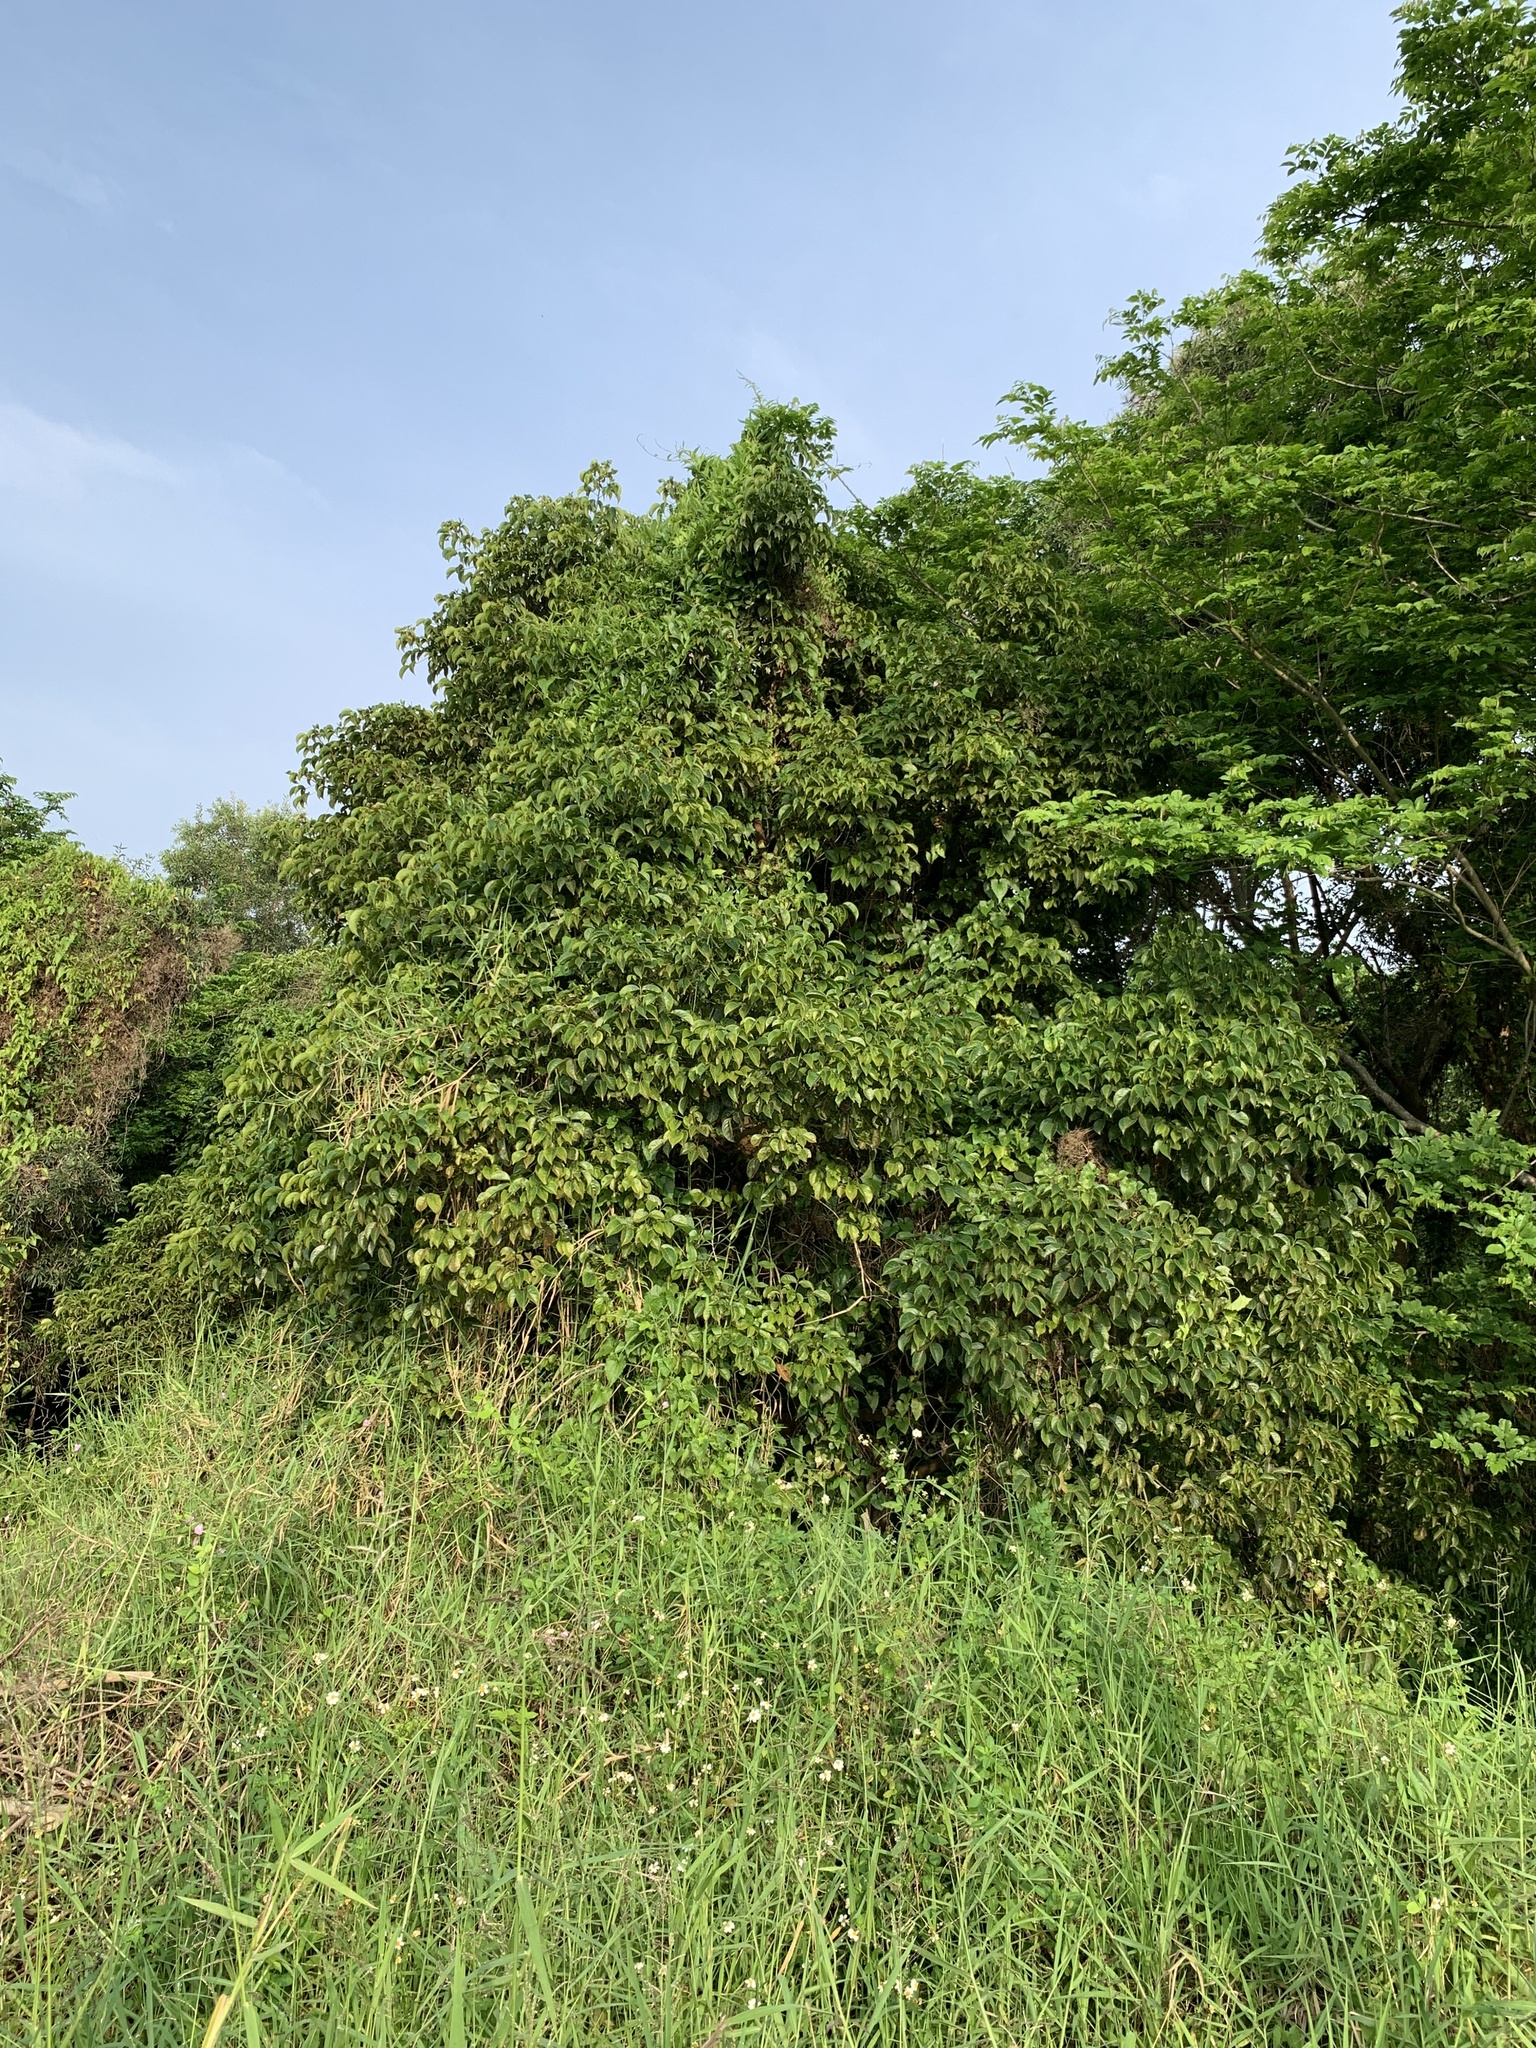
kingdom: Plantae
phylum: Tracheophyta
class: Magnoliopsida
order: Malpighiales
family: Phyllanthaceae
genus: Bischofia
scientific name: Bischofia javanica
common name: Javanese bishopwood
